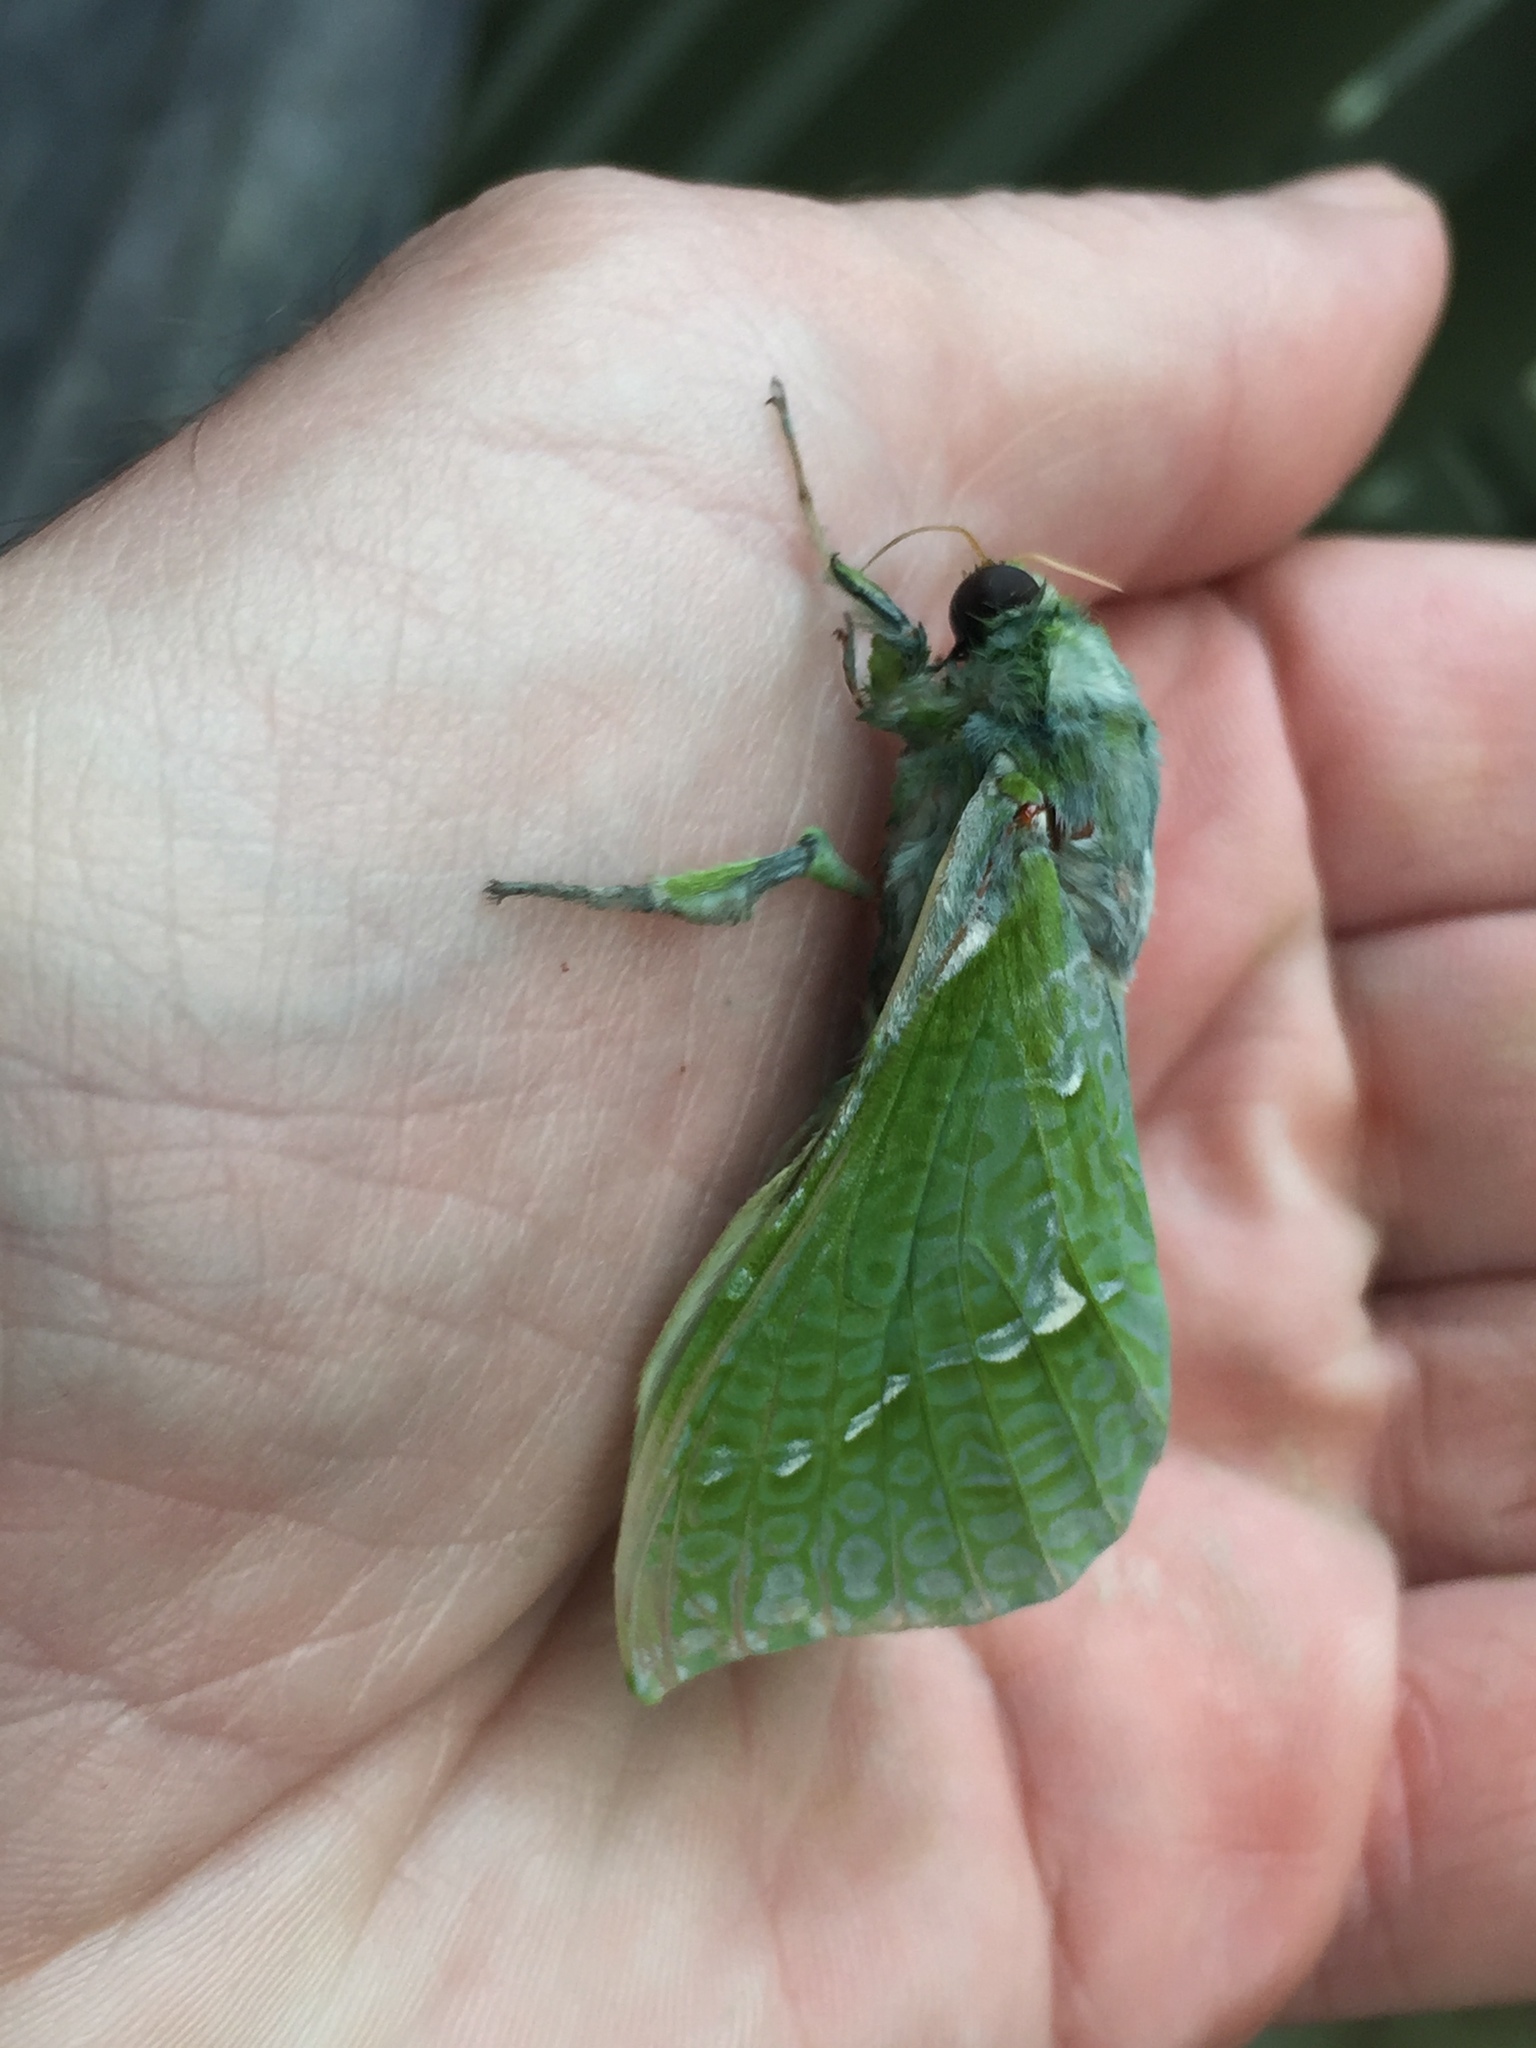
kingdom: Animalia
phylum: Arthropoda
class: Insecta
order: Lepidoptera
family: Hepialidae
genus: Aenetus
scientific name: Aenetus virescens
